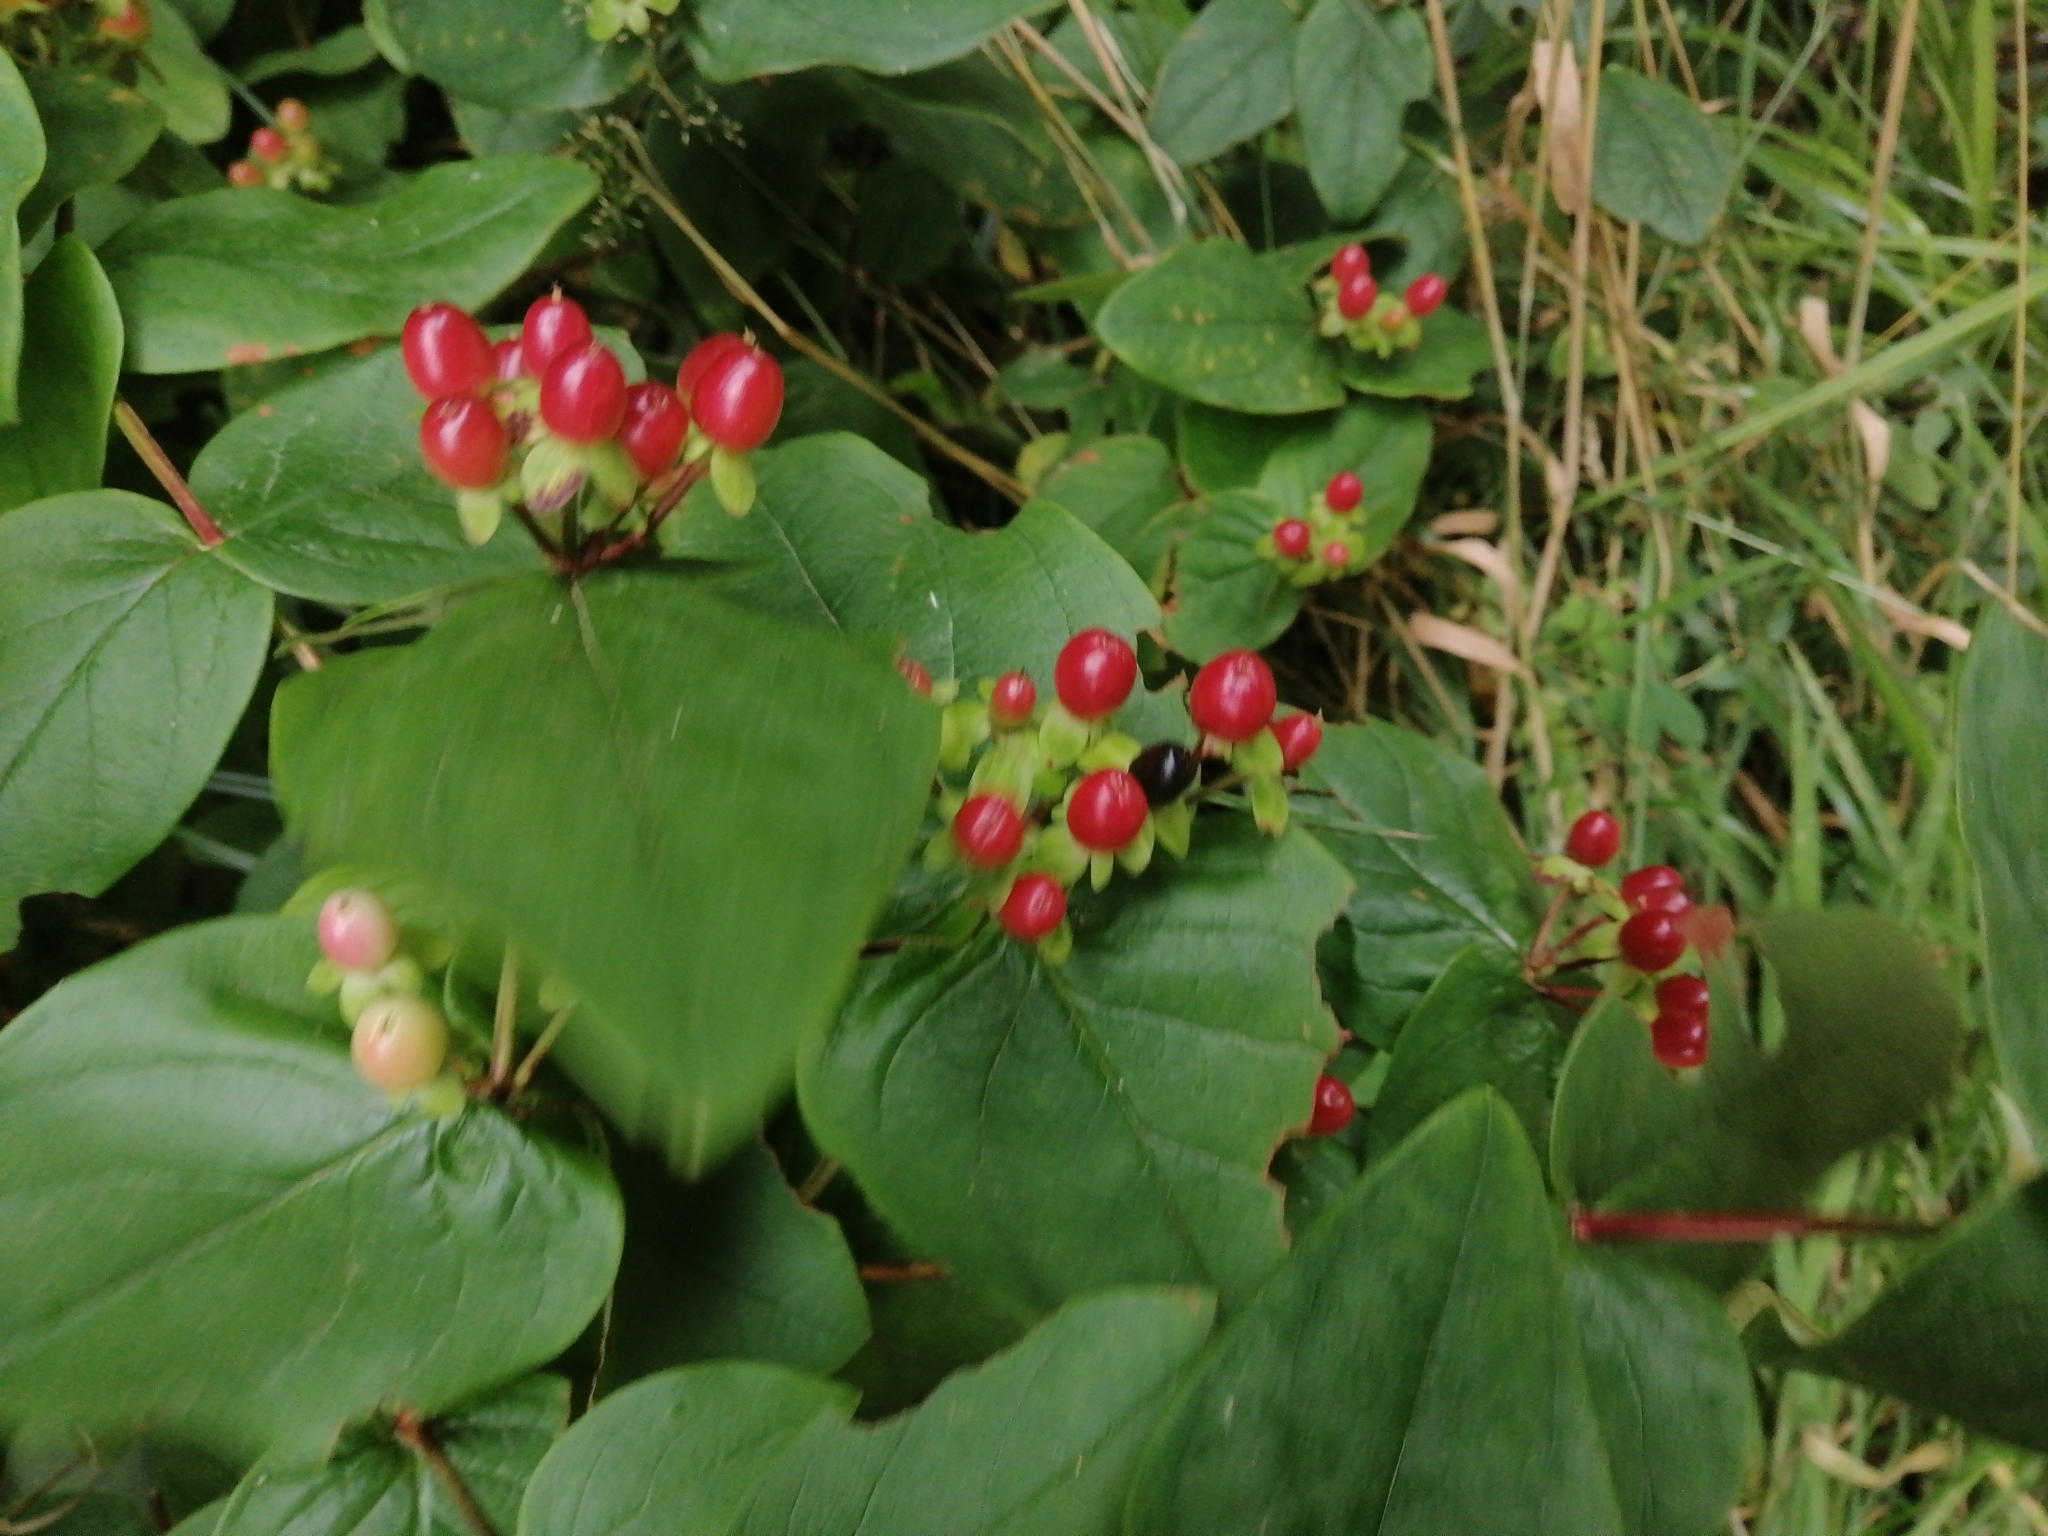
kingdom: Plantae
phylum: Tracheophyta
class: Magnoliopsida
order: Malpighiales
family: Hypericaceae
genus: Hypericum
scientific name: Hypericum androsaemum
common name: Sweet-amber
